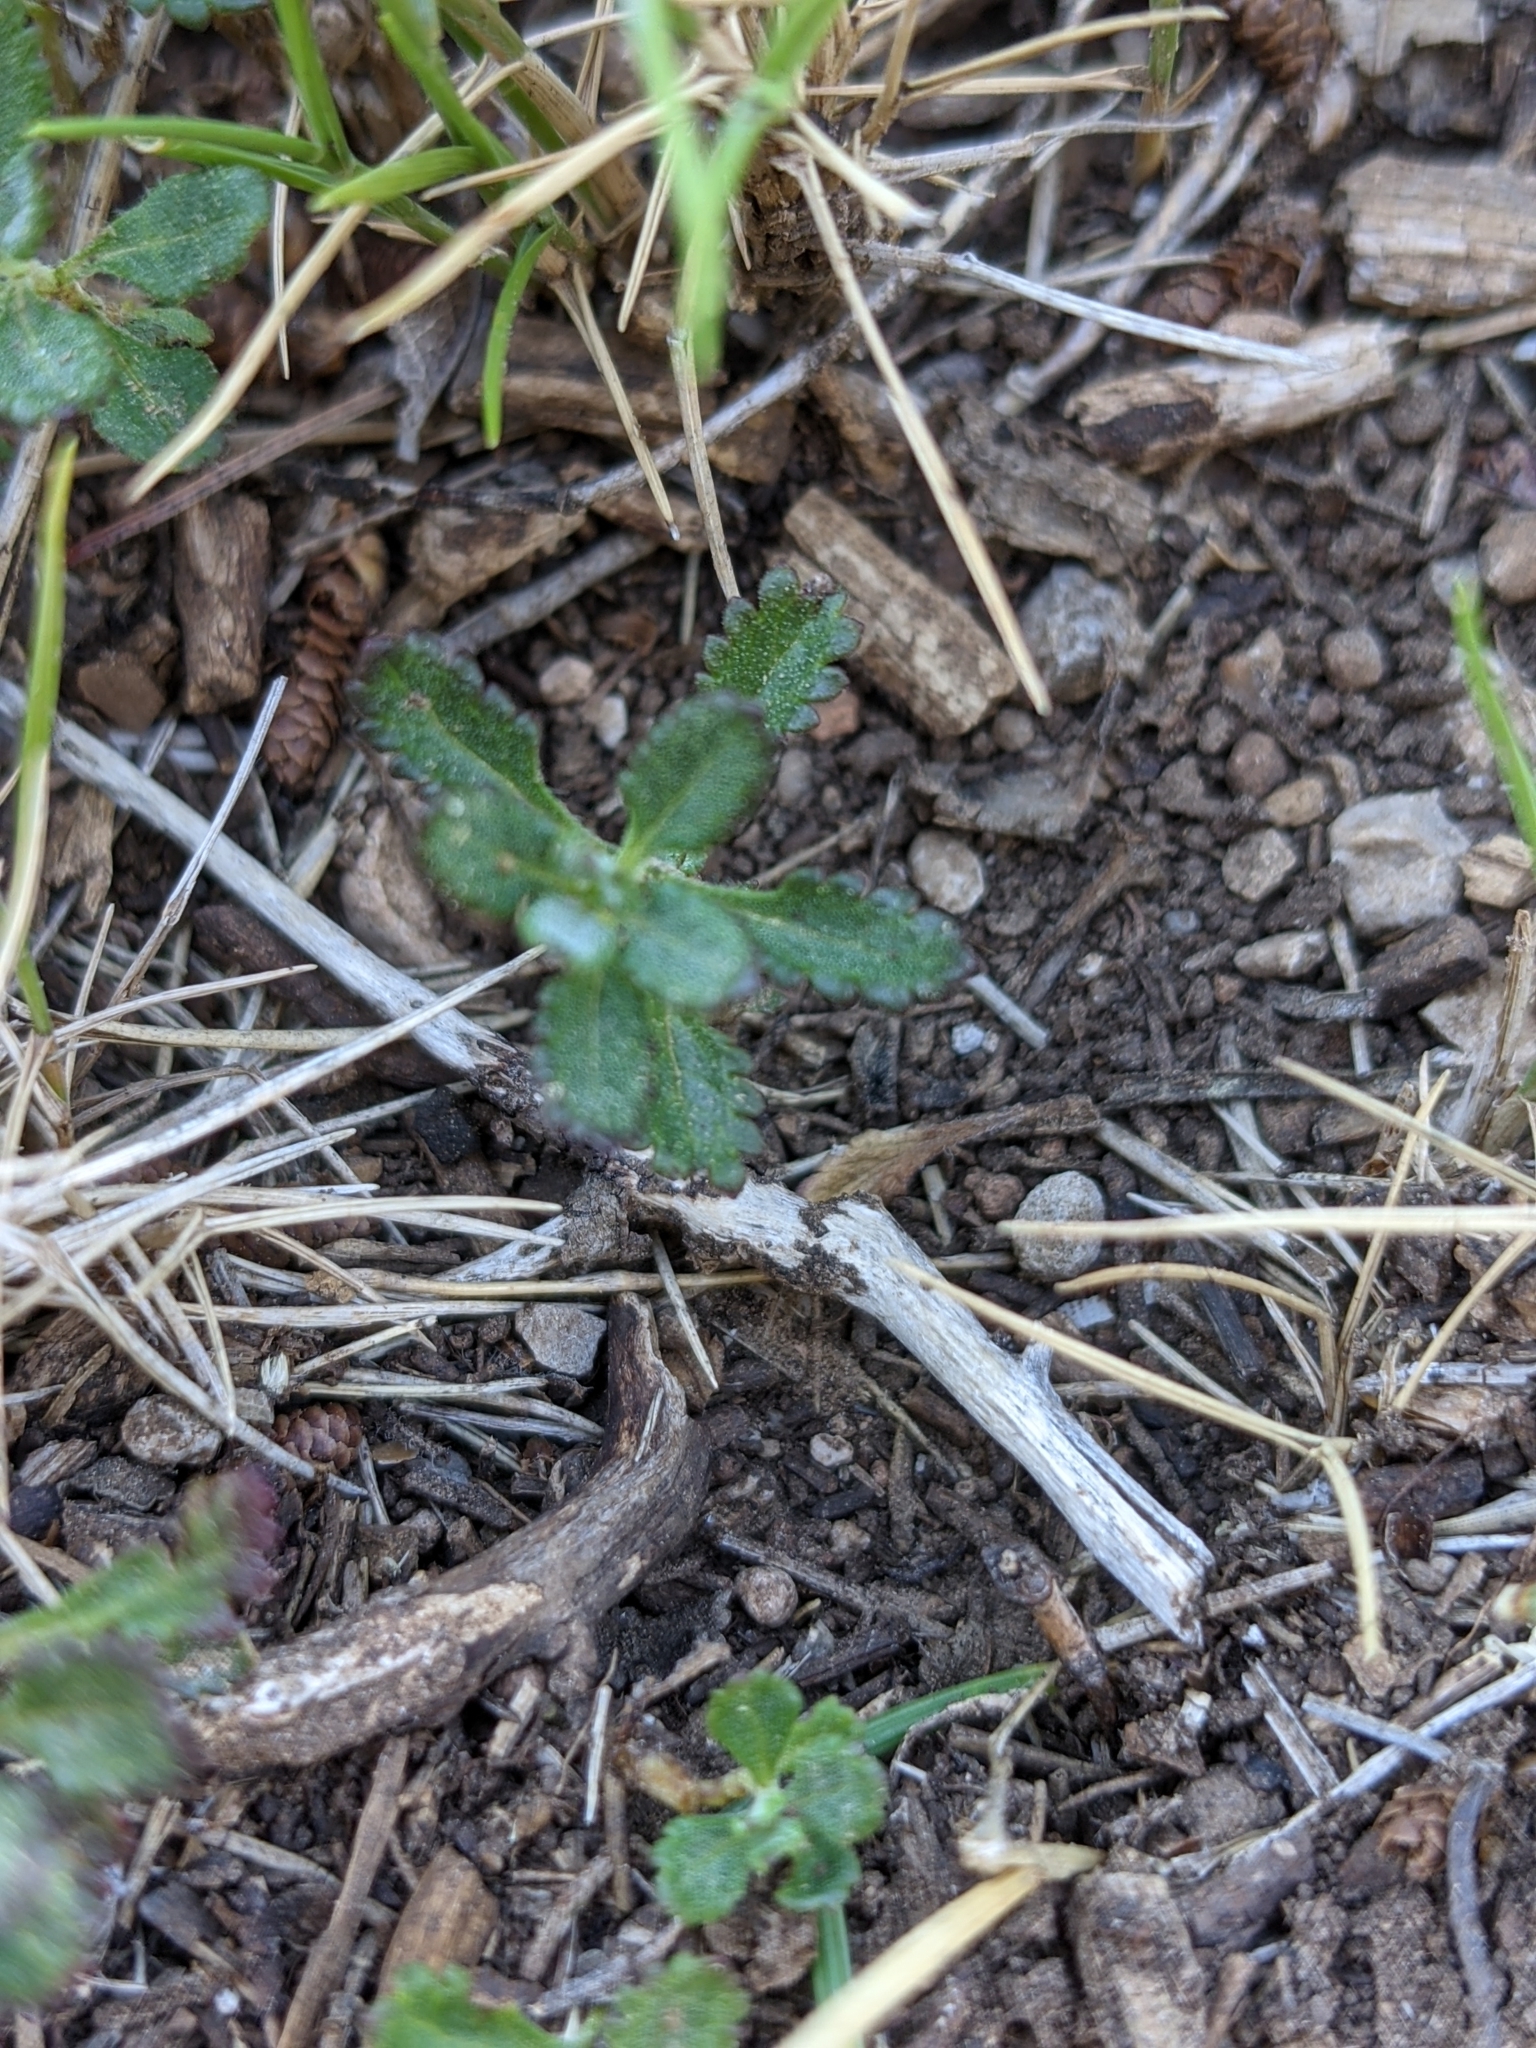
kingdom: Plantae
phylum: Tracheophyta
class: Magnoliopsida
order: Lamiales
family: Lamiaceae
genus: Teucrium
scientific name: Teucrium chamaedrys
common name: Wall germander
